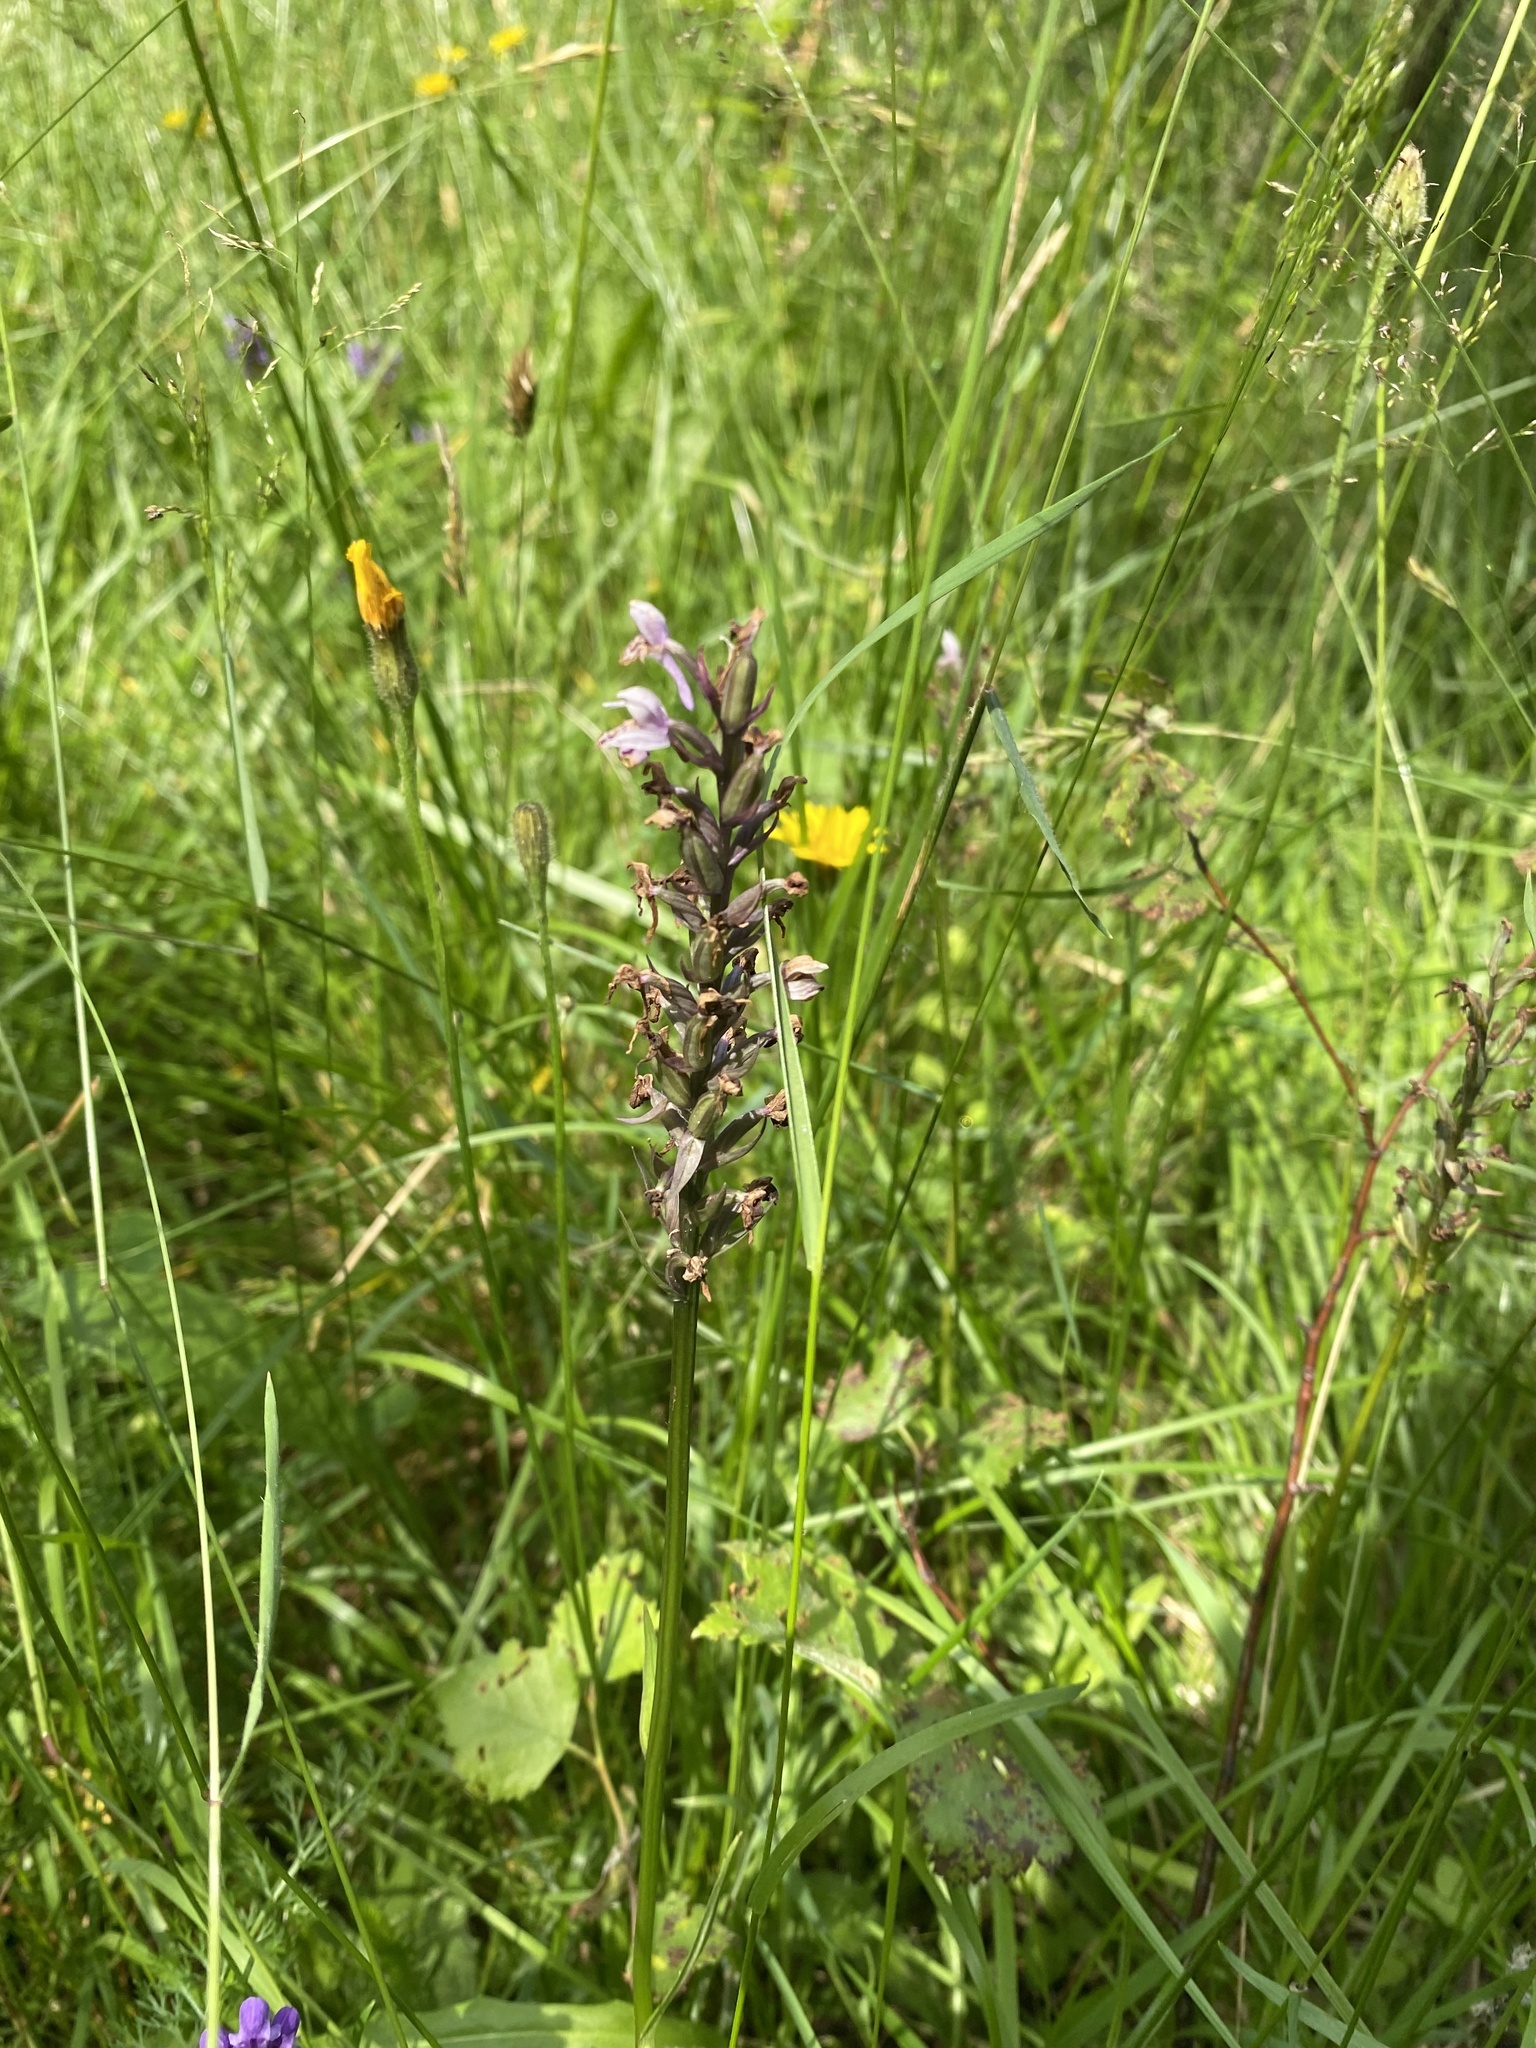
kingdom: Plantae
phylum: Tracheophyta
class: Liliopsida
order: Asparagales
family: Orchidaceae
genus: Dactylorhiza
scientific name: Dactylorhiza maculata
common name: Heath spotted-orchid
